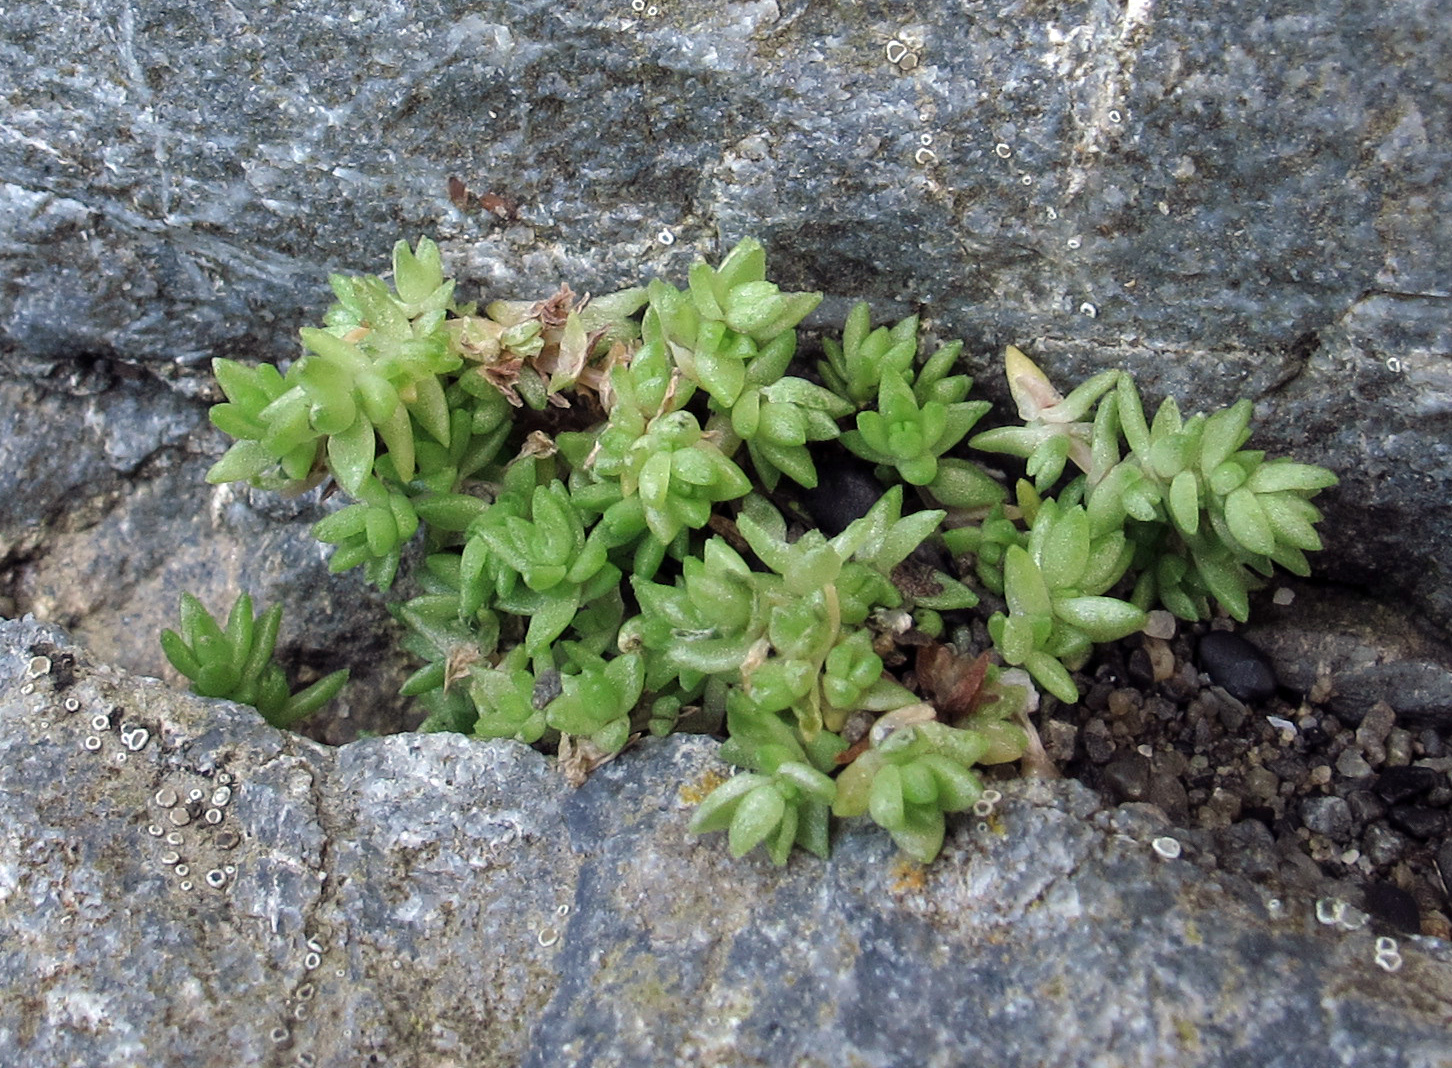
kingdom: Plantae
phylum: Tracheophyta
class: Magnoliopsida
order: Saxifragales
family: Crassulaceae
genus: Crassula
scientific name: Crassula moschata
